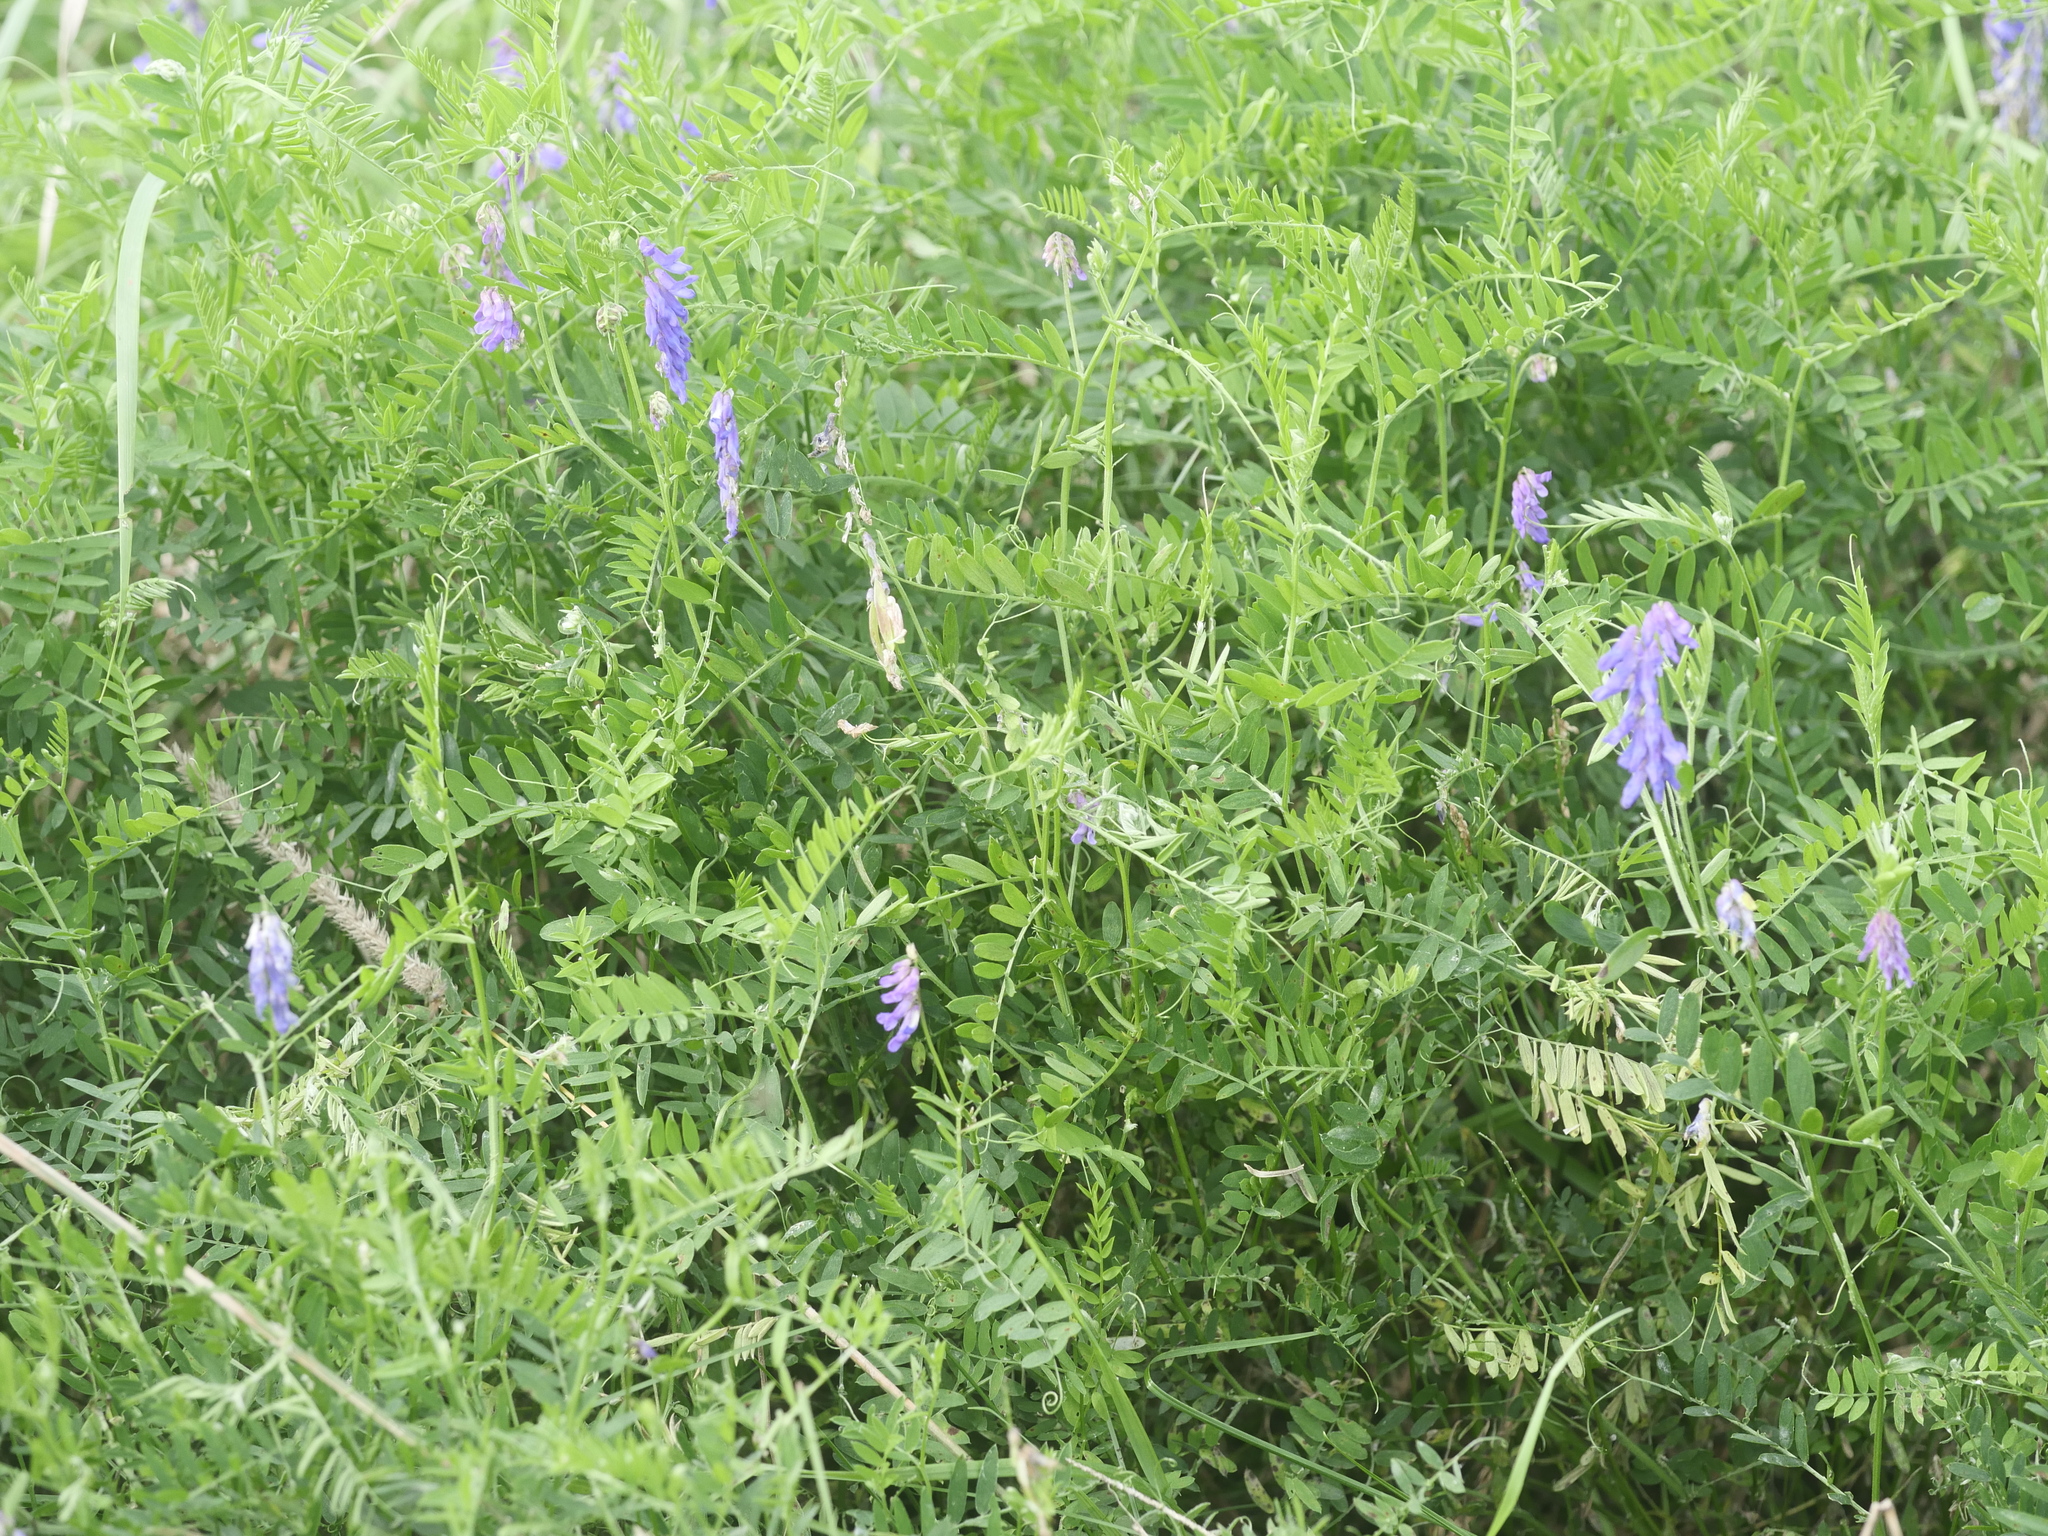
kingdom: Plantae
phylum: Tracheophyta
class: Magnoliopsida
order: Fabales
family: Fabaceae
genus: Vicia
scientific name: Vicia cracca
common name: Bird vetch
